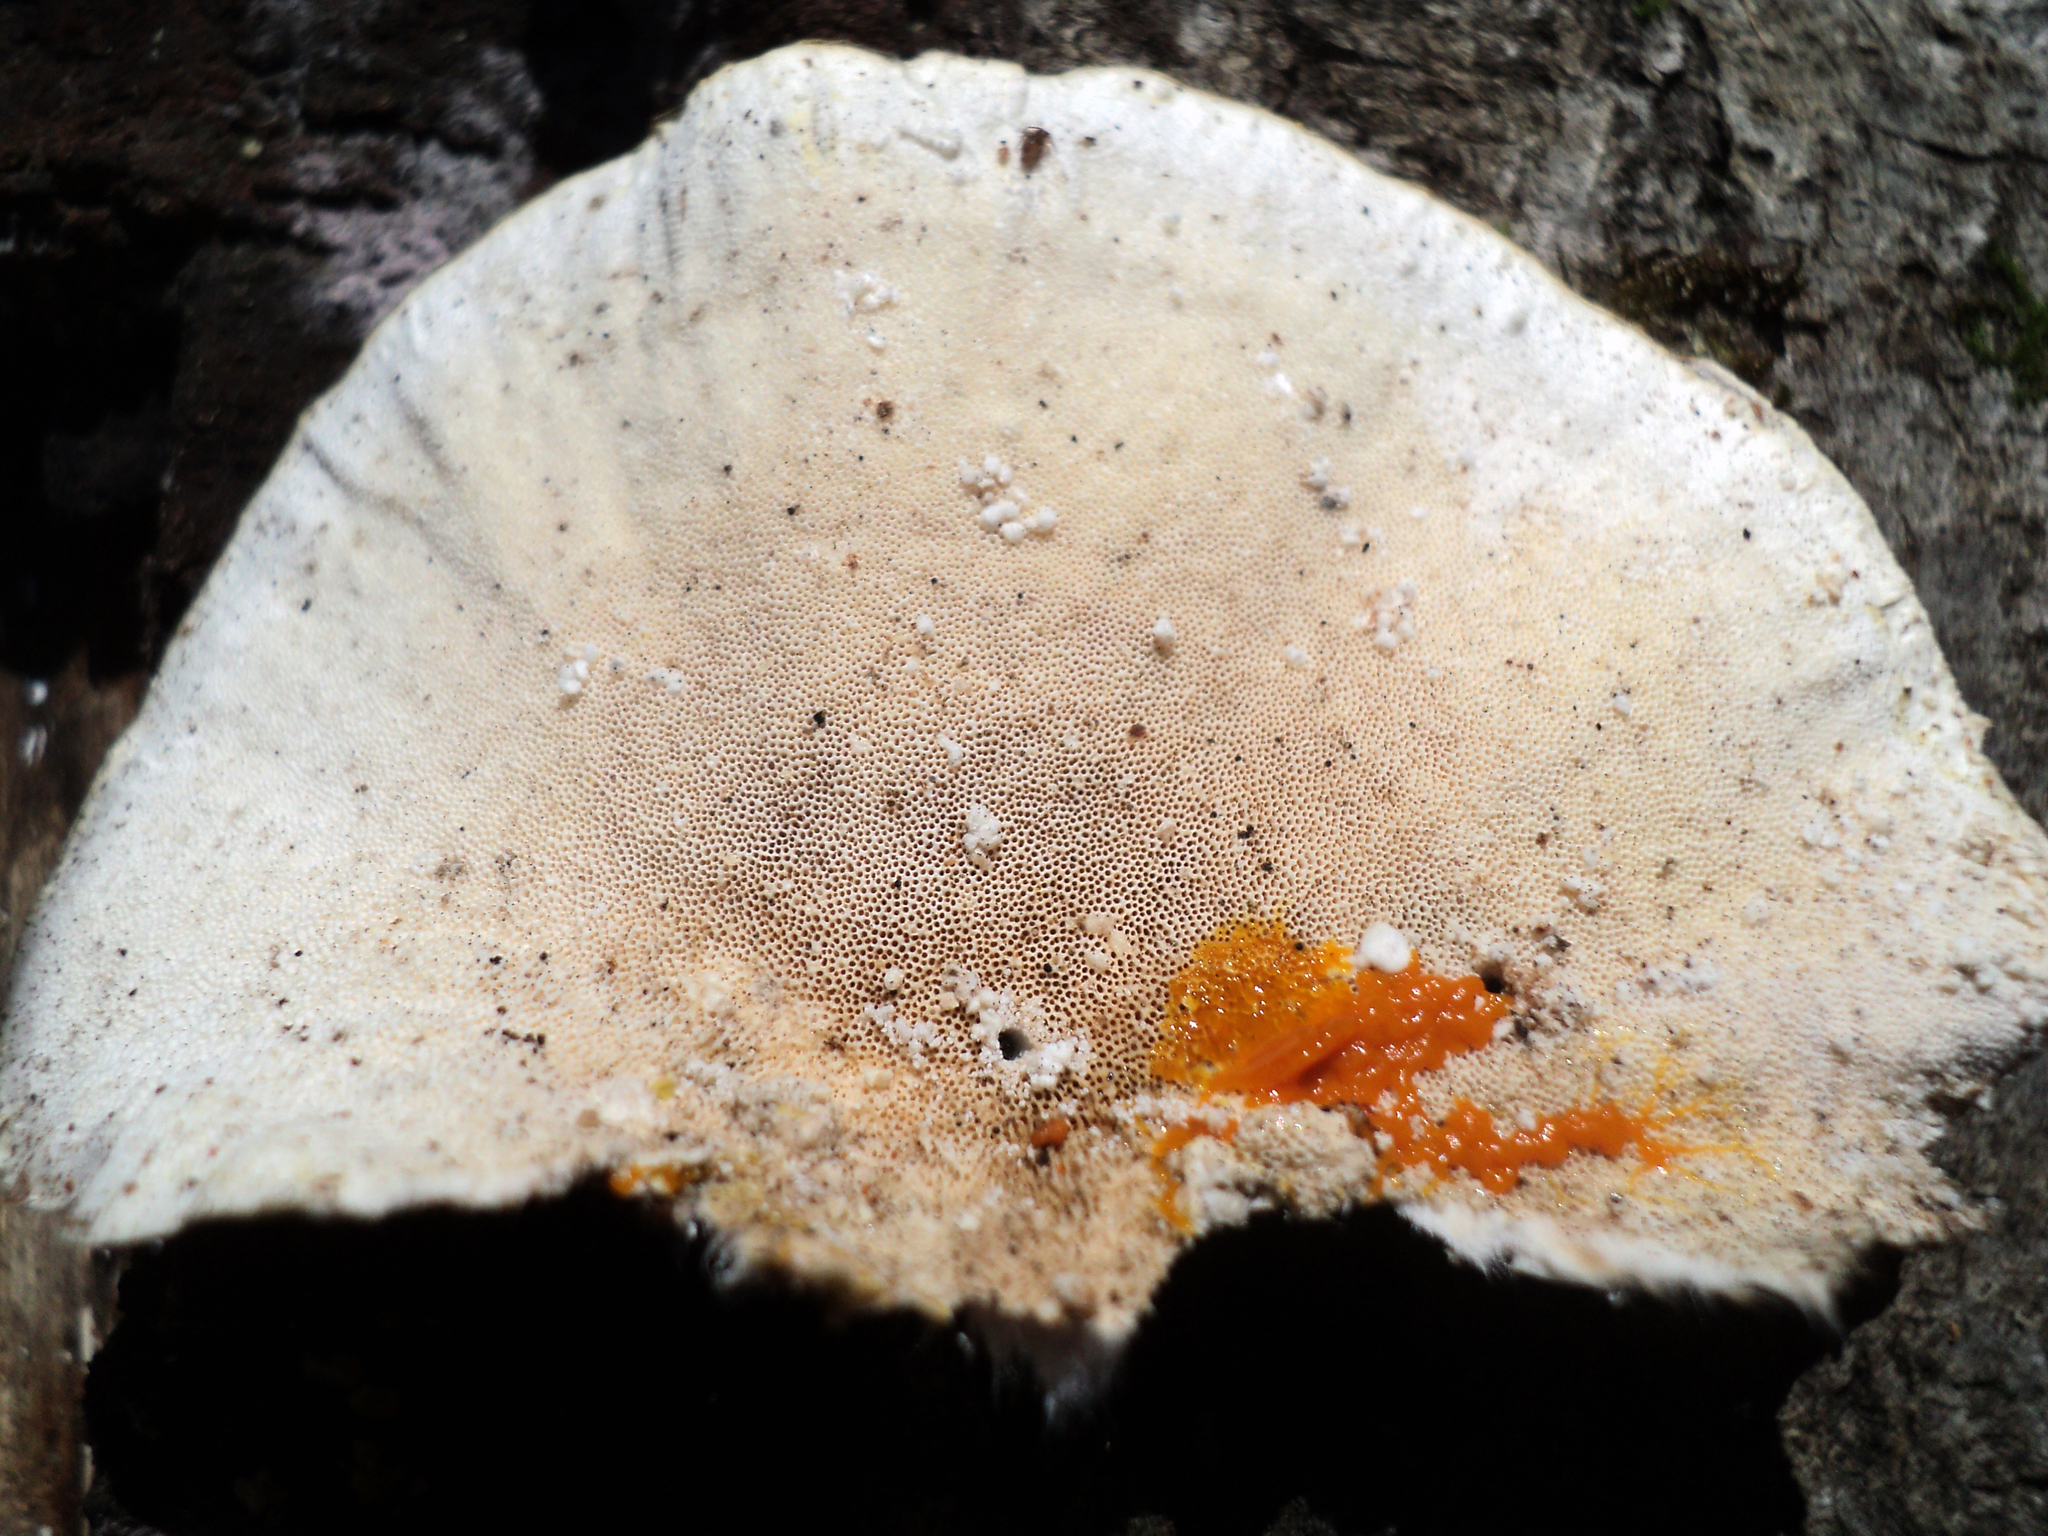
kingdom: Fungi
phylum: Basidiomycota
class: Agaricomycetes
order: Polyporales
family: Polyporaceae
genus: Trametes
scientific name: Trametes versicolor
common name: Turkeytail
